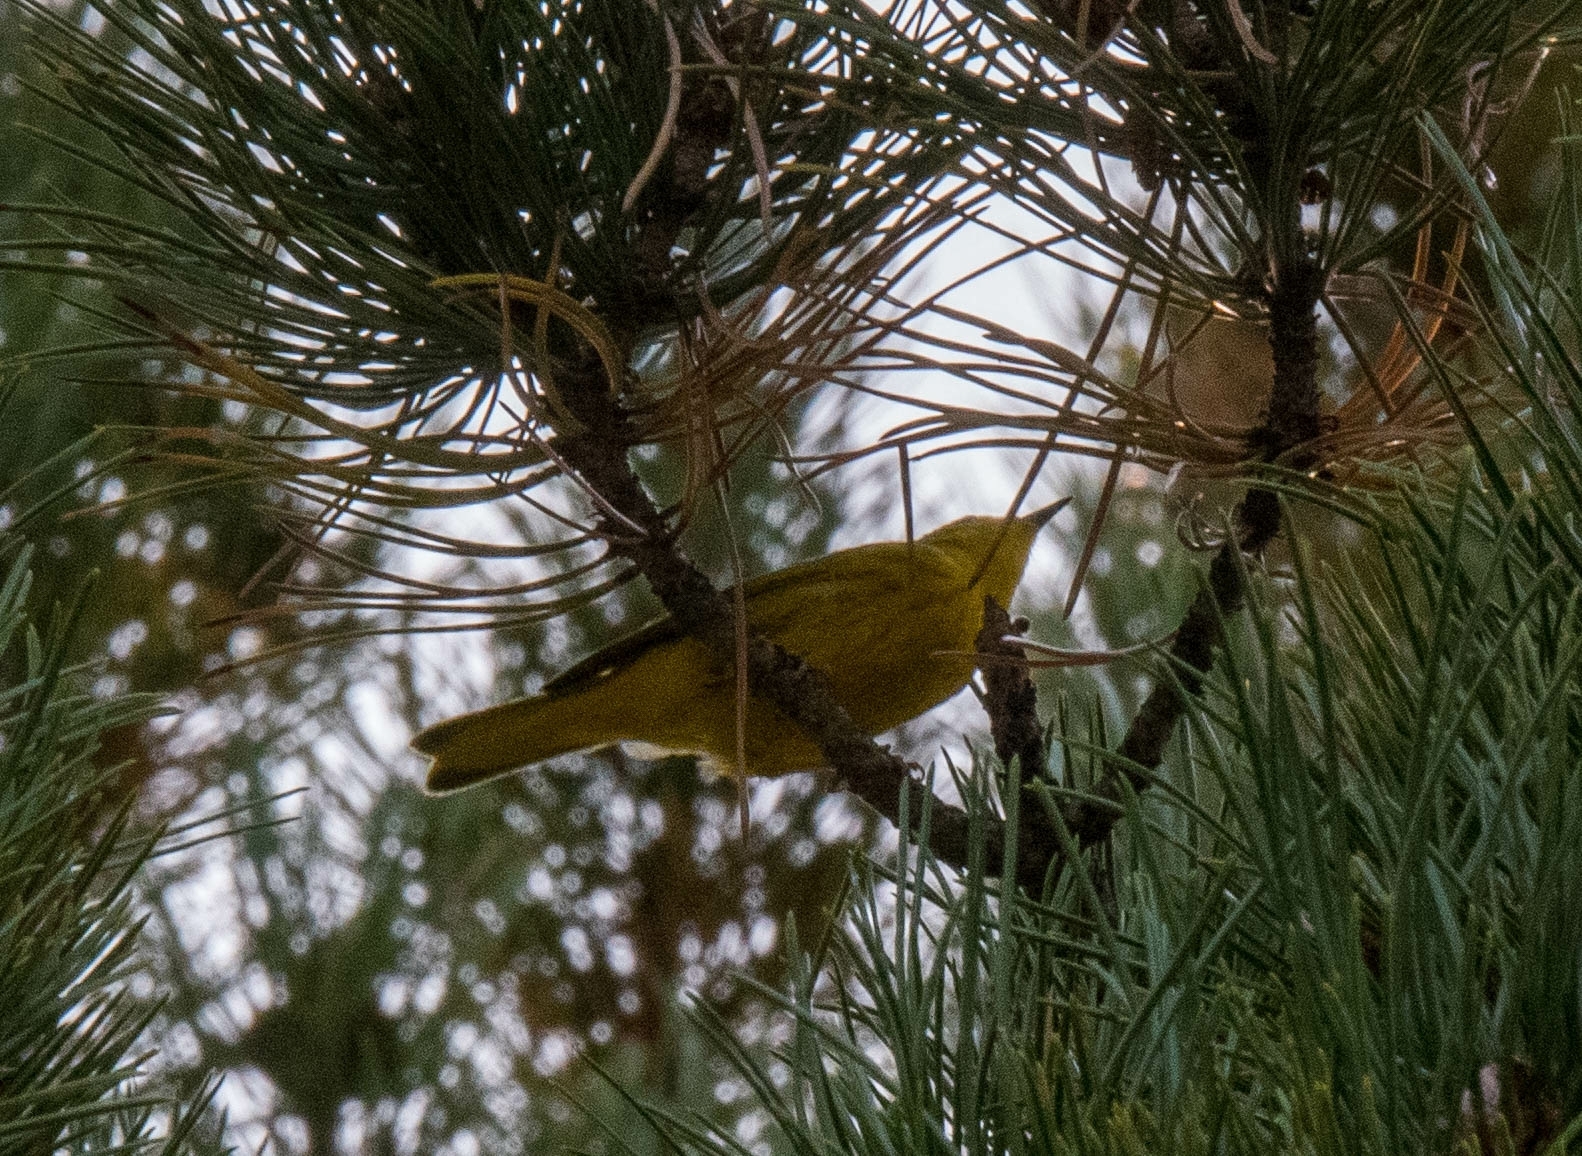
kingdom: Animalia
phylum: Chordata
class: Aves
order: Passeriformes
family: Parulidae
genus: Setophaga
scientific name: Setophaga petechia
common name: Yellow warbler
